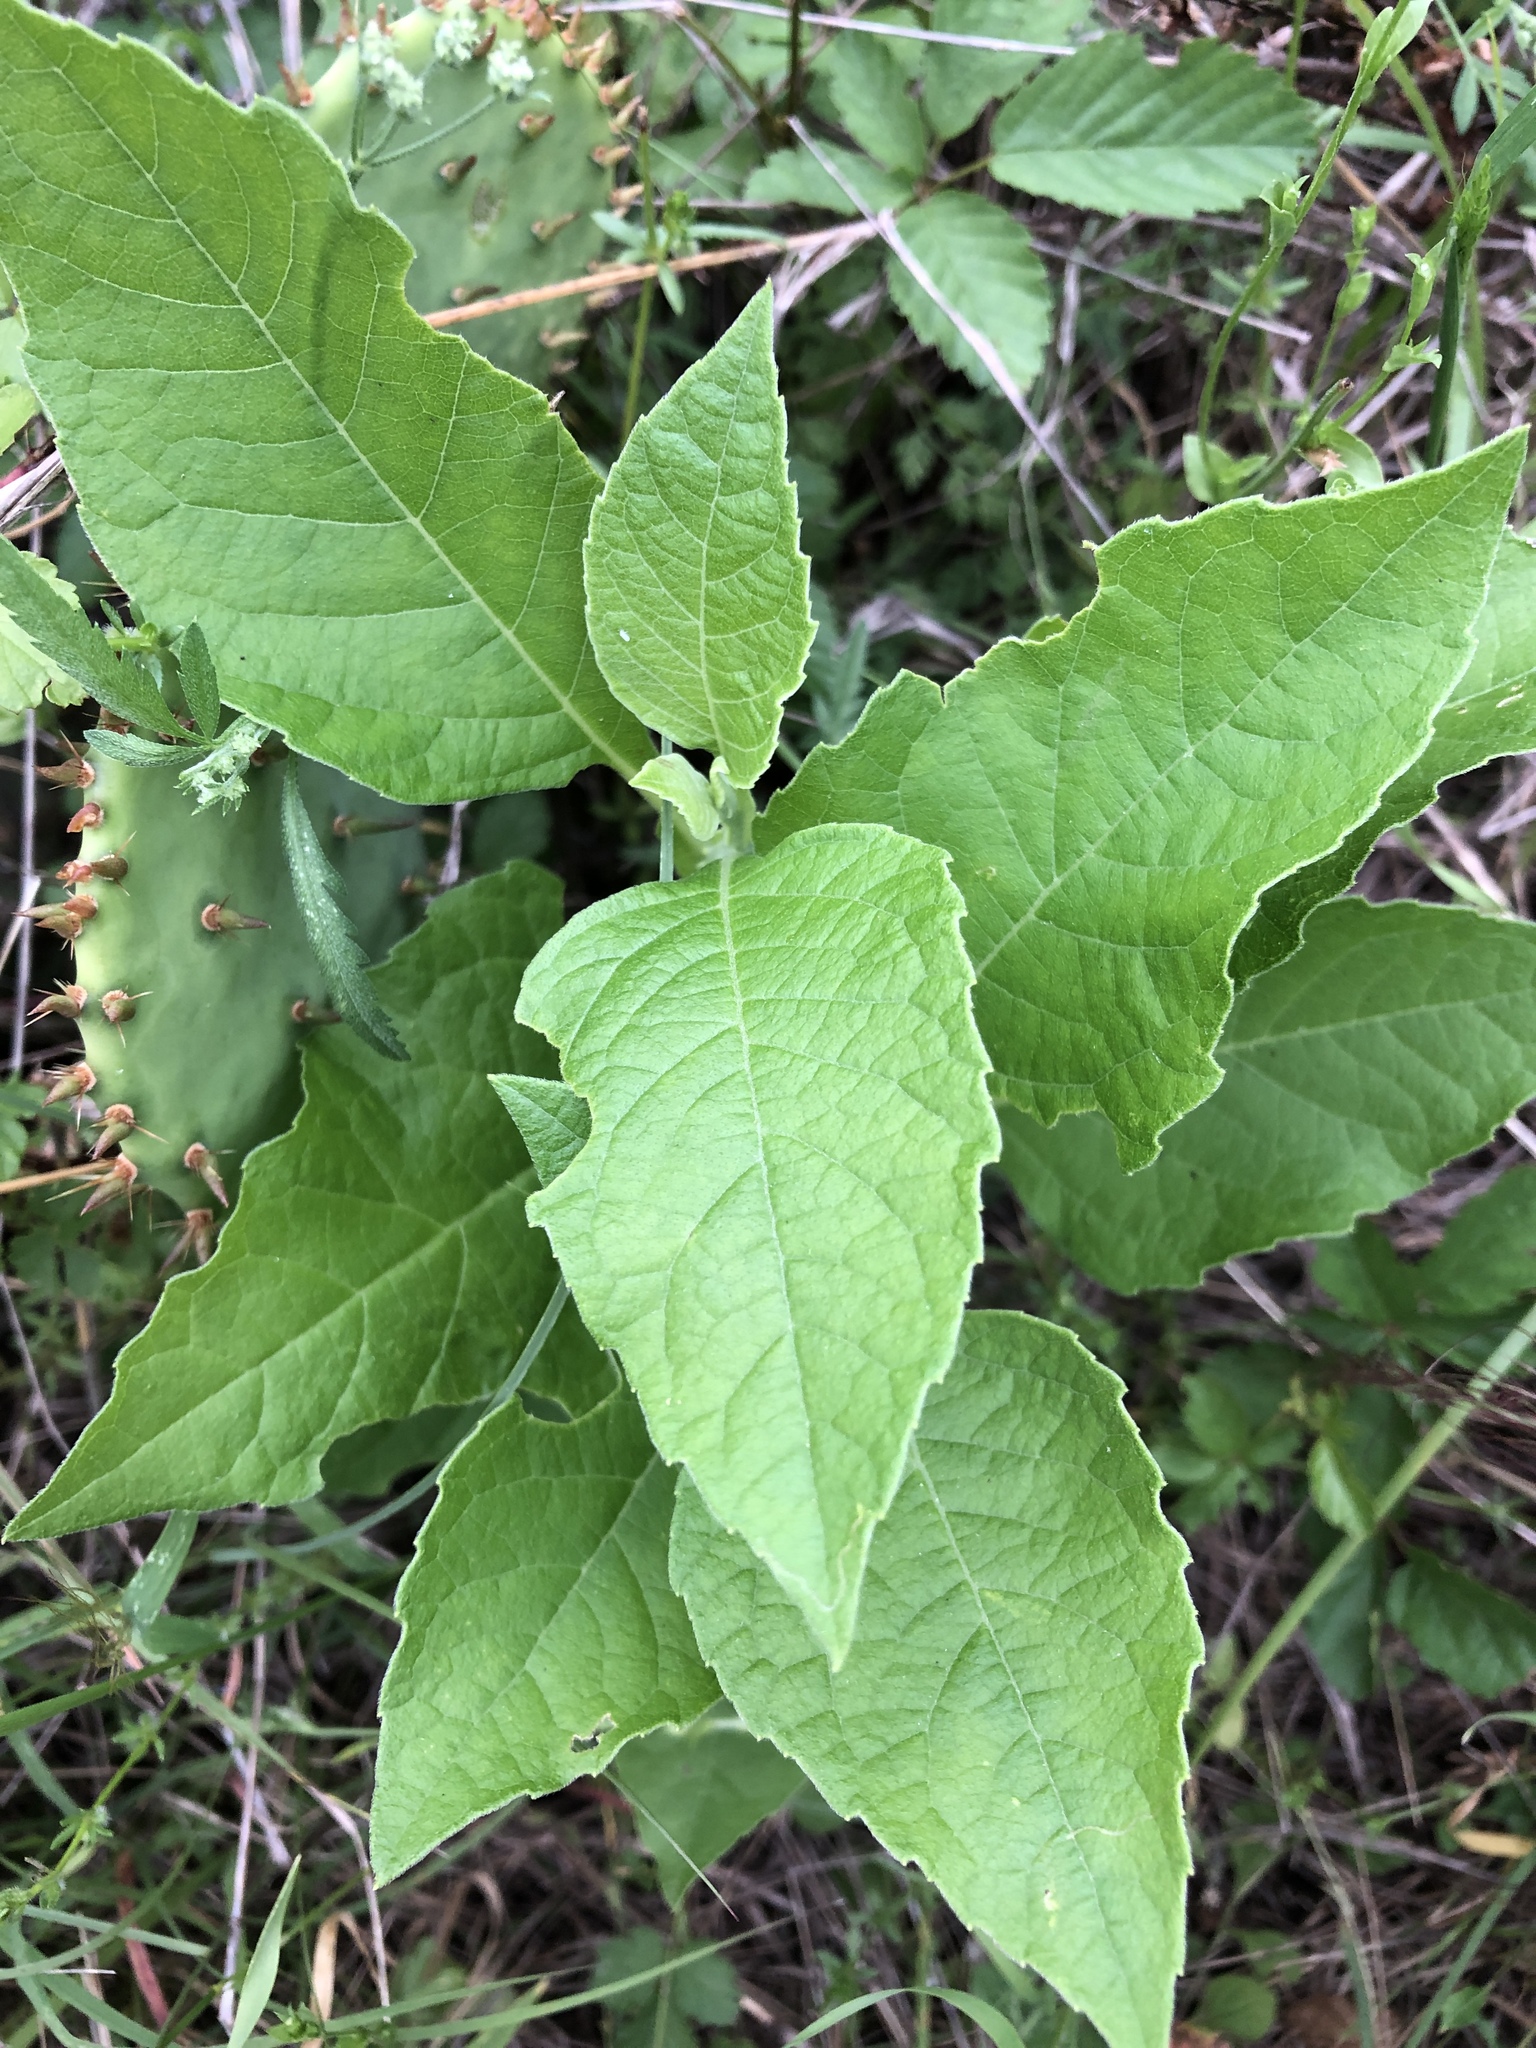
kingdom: Plantae
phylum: Tracheophyta
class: Magnoliopsida
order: Asterales
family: Asteraceae
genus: Verbesina
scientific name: Verbesina virginica
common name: Frostweed
